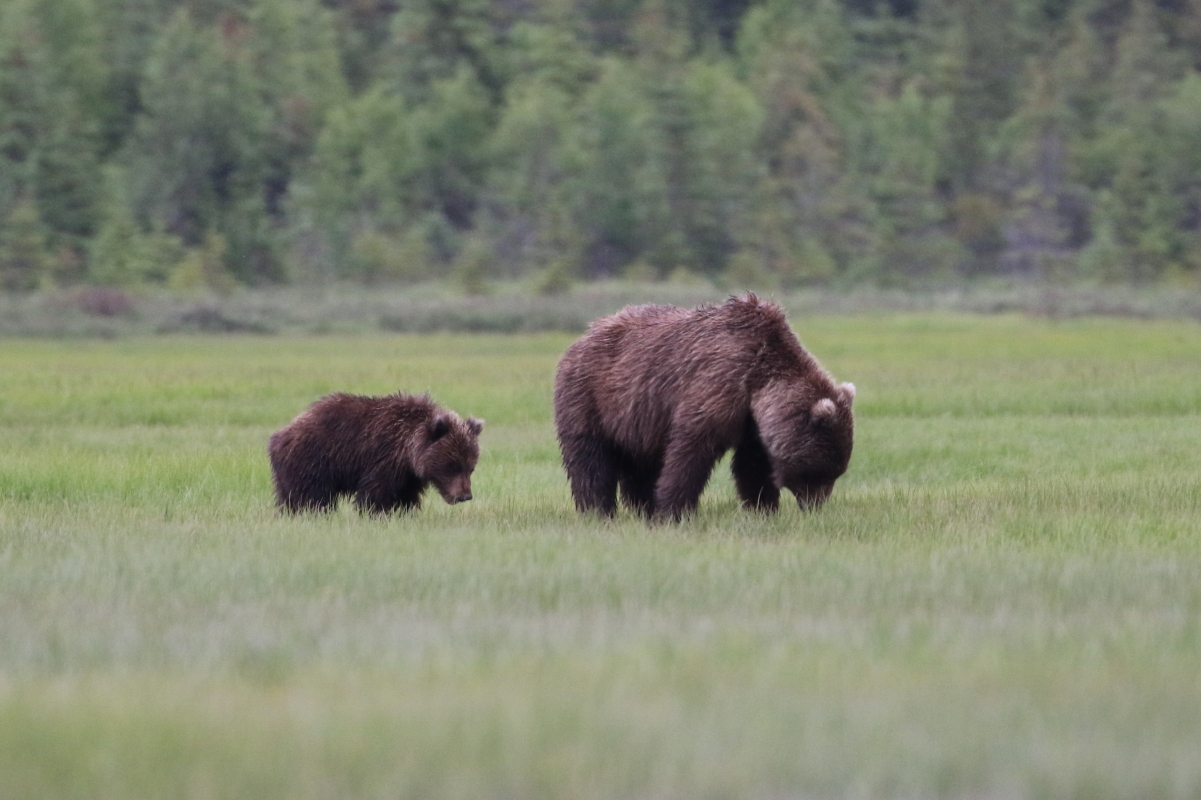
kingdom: Animalia
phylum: Chordata
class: Mammalia
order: Carnivora
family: Ursidae
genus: Ursus
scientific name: Ursus arctos
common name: Brown bear
